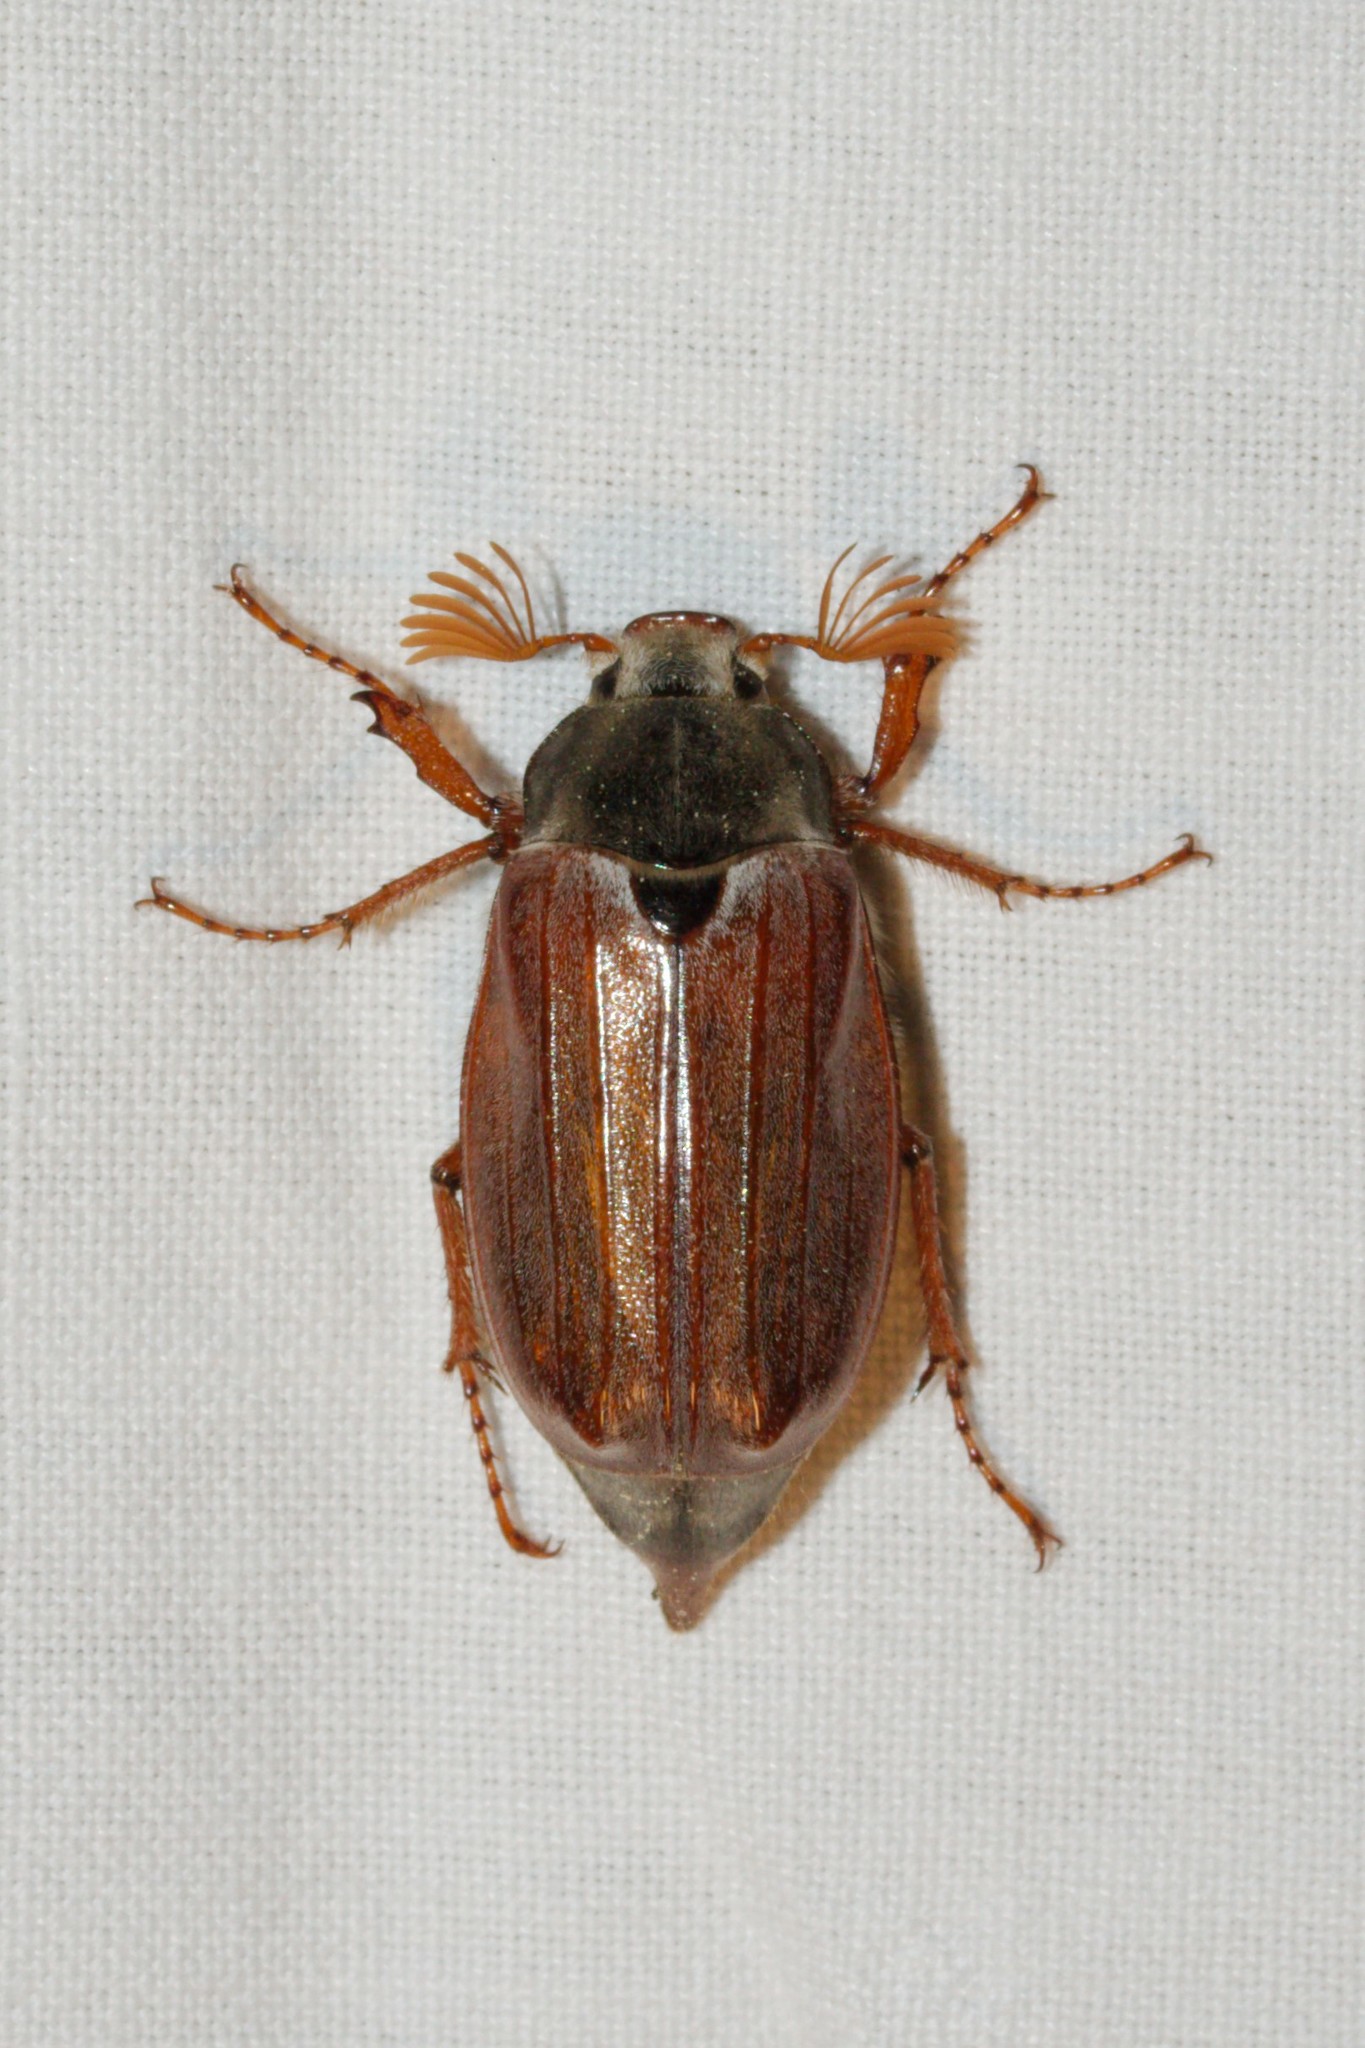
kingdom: Animalia
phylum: Arthropoda
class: Insecta
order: Coleoptera
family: Scarabaeidae
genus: Melolontha
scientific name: Melolontha melolontha
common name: Cockchafer maybeetle
